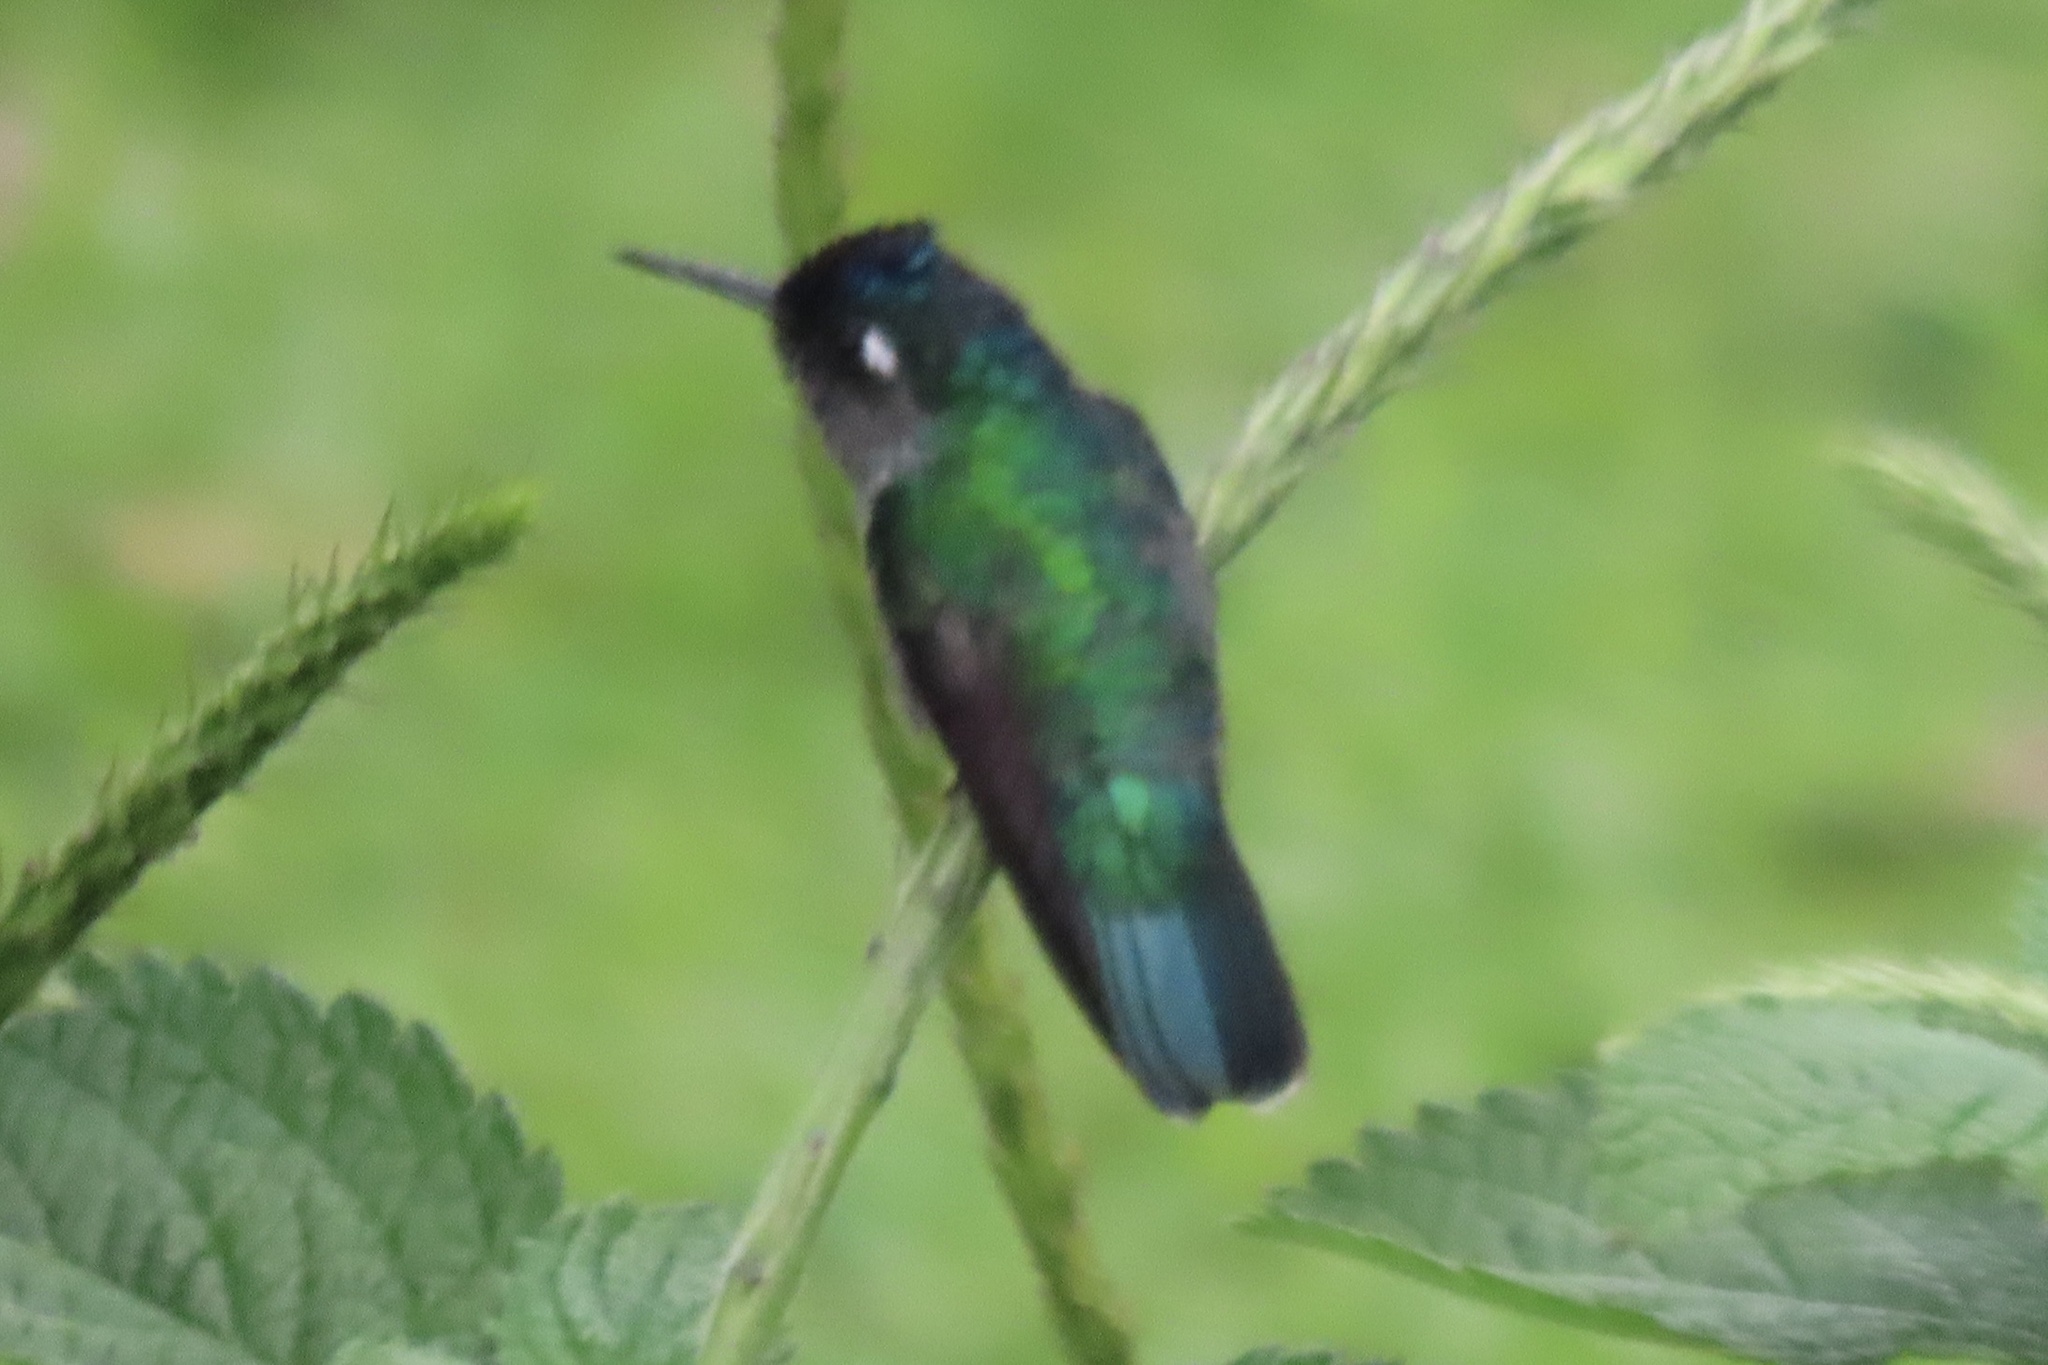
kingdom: Animalia
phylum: Chordata
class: Aves
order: Apodiformes
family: Trochilidae
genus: Klais
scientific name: Klais guimeti
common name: Violet-headed hummingbird
